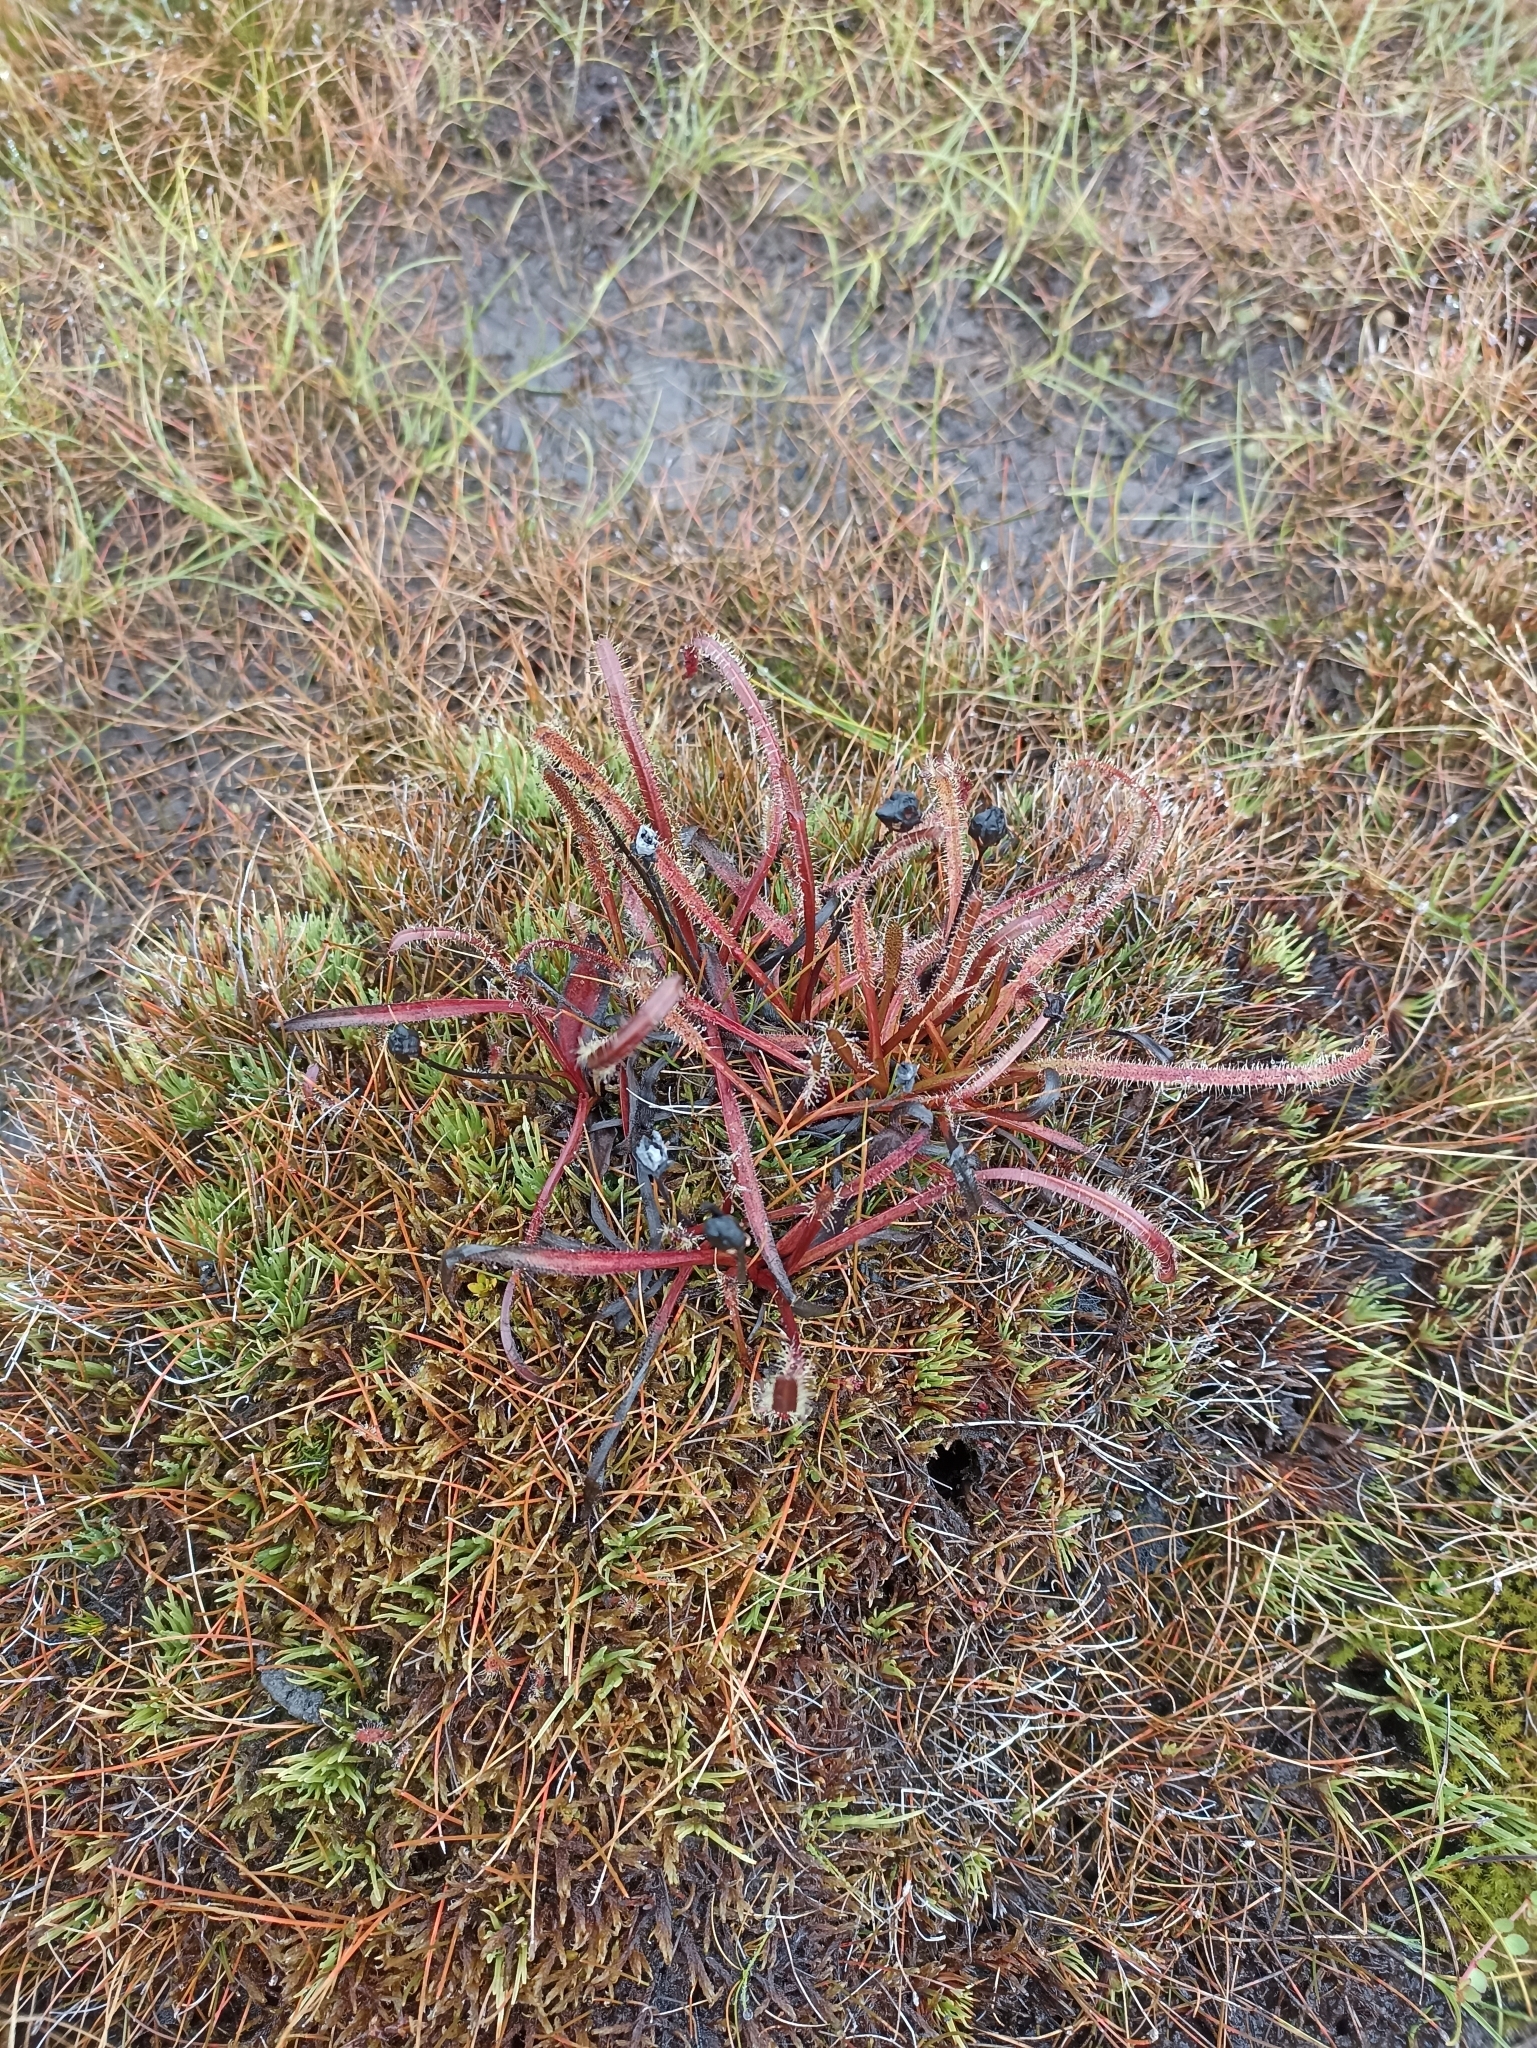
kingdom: Plantae
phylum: Tracheophyta
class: Magnoliopsida
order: Caryophyllales
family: Droseraceae
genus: Drosera
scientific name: Drosera arcturi
